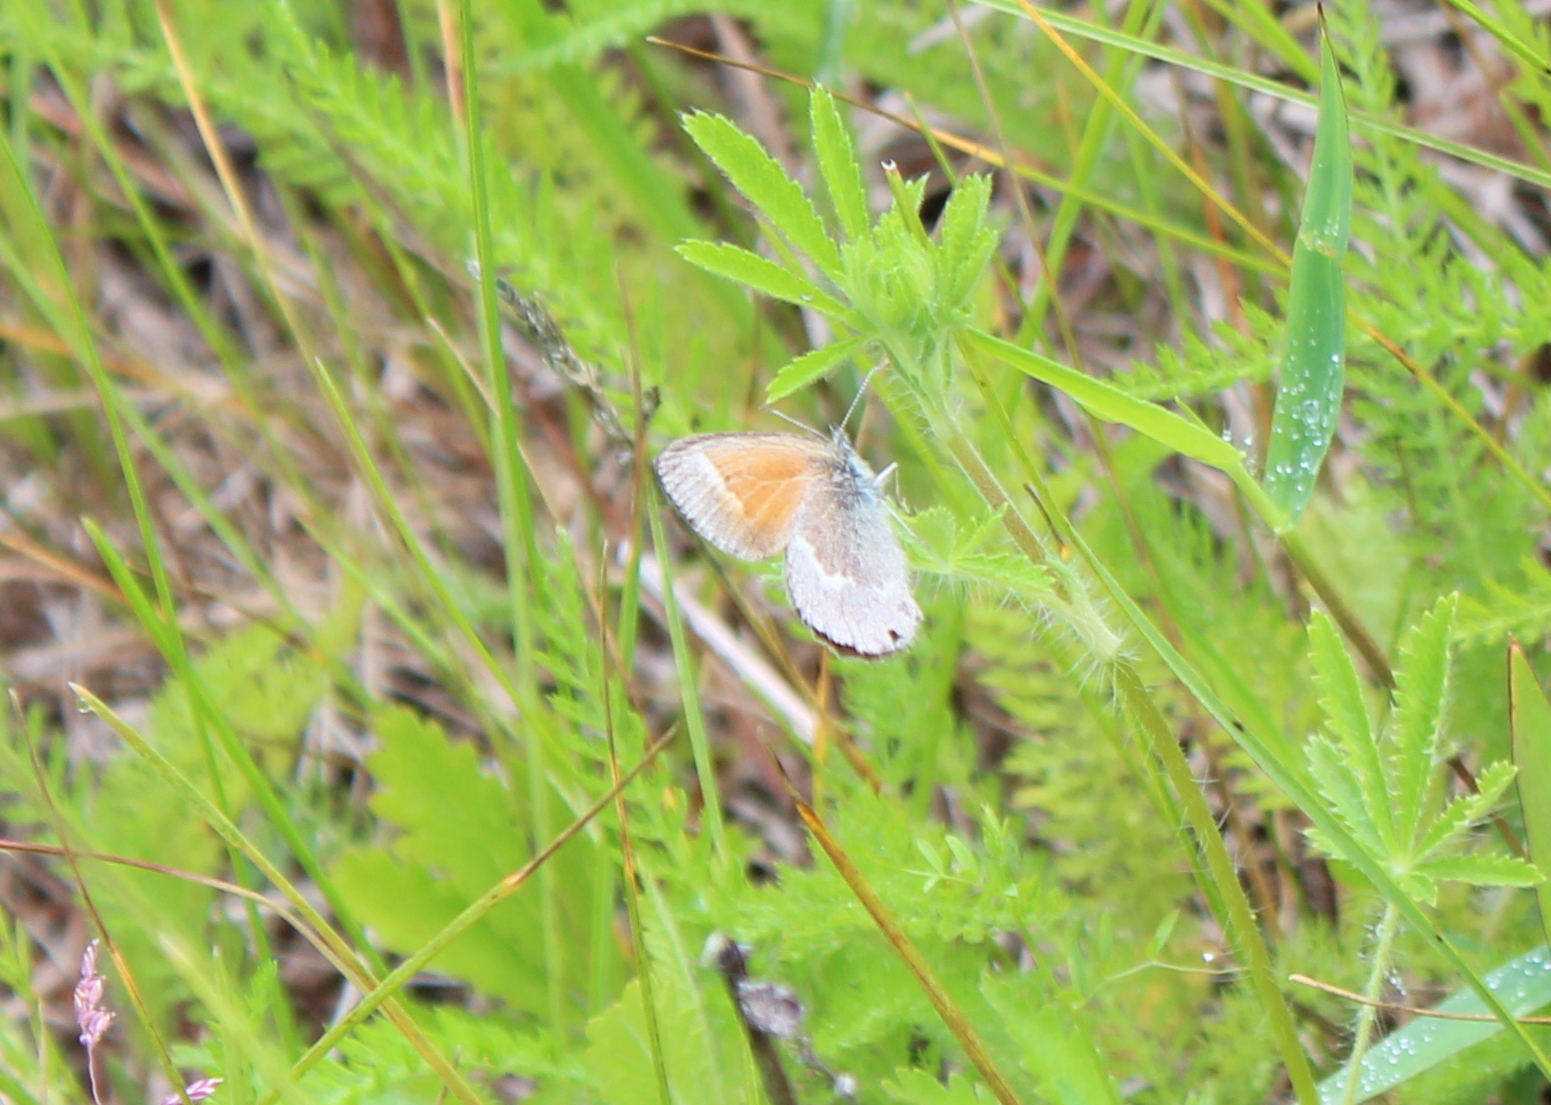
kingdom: Animalia
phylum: Arthropoda
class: Insecta
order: Lepidoptera
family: Nymphalidae
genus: Coenonympha
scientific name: Coenonympha california
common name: Common ringlet
